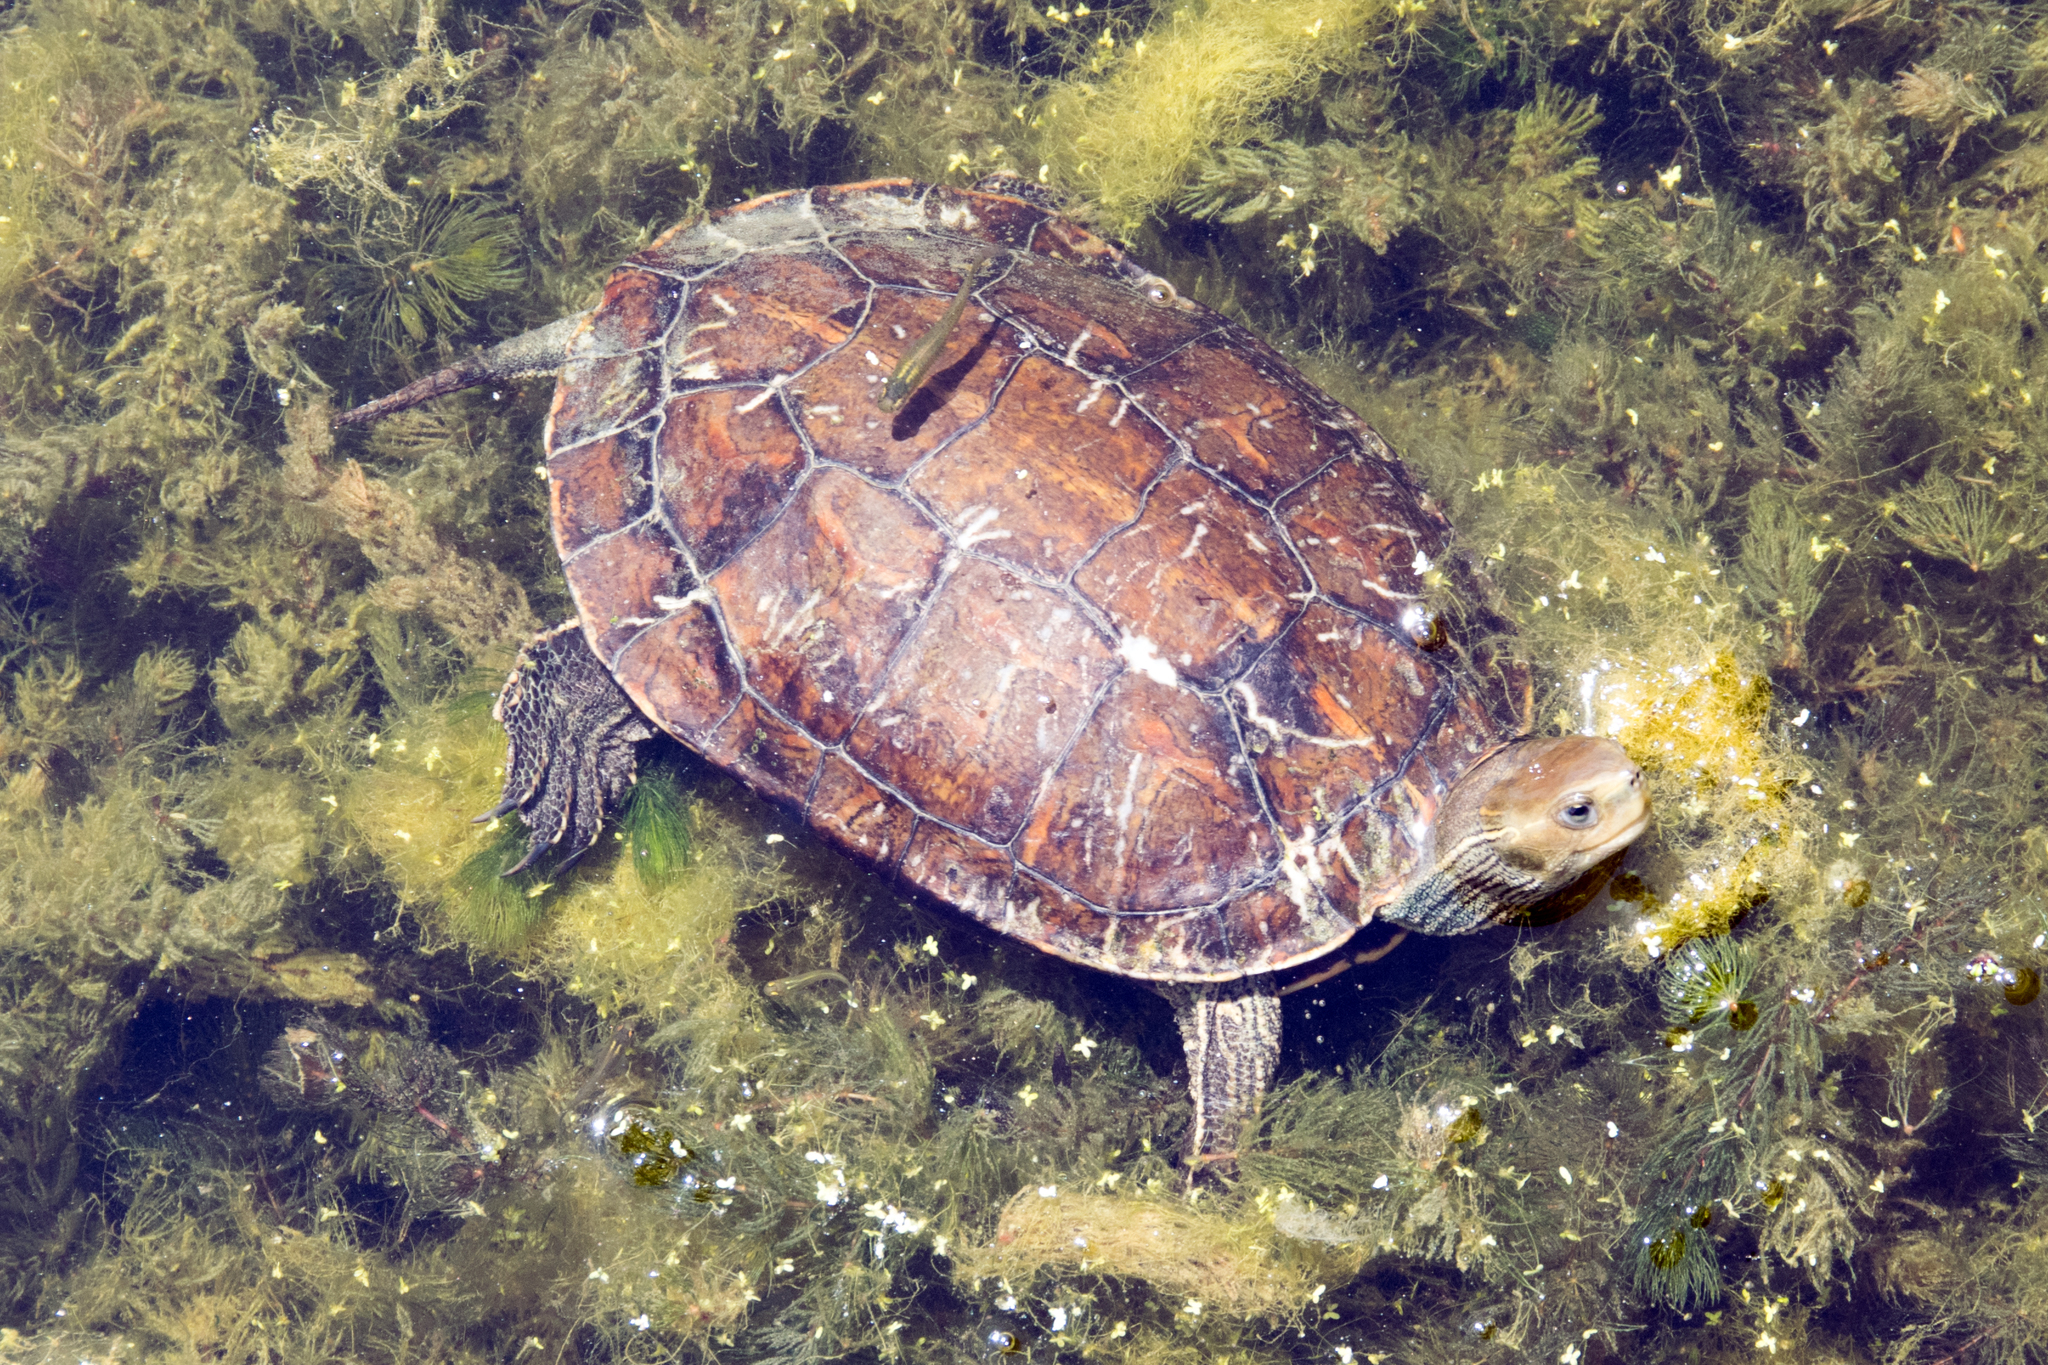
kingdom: Animalia
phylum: Chordata
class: Testudines
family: Geoemydidae
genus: Mauremys
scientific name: Mauremys rivulata
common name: Western caspian turtle
